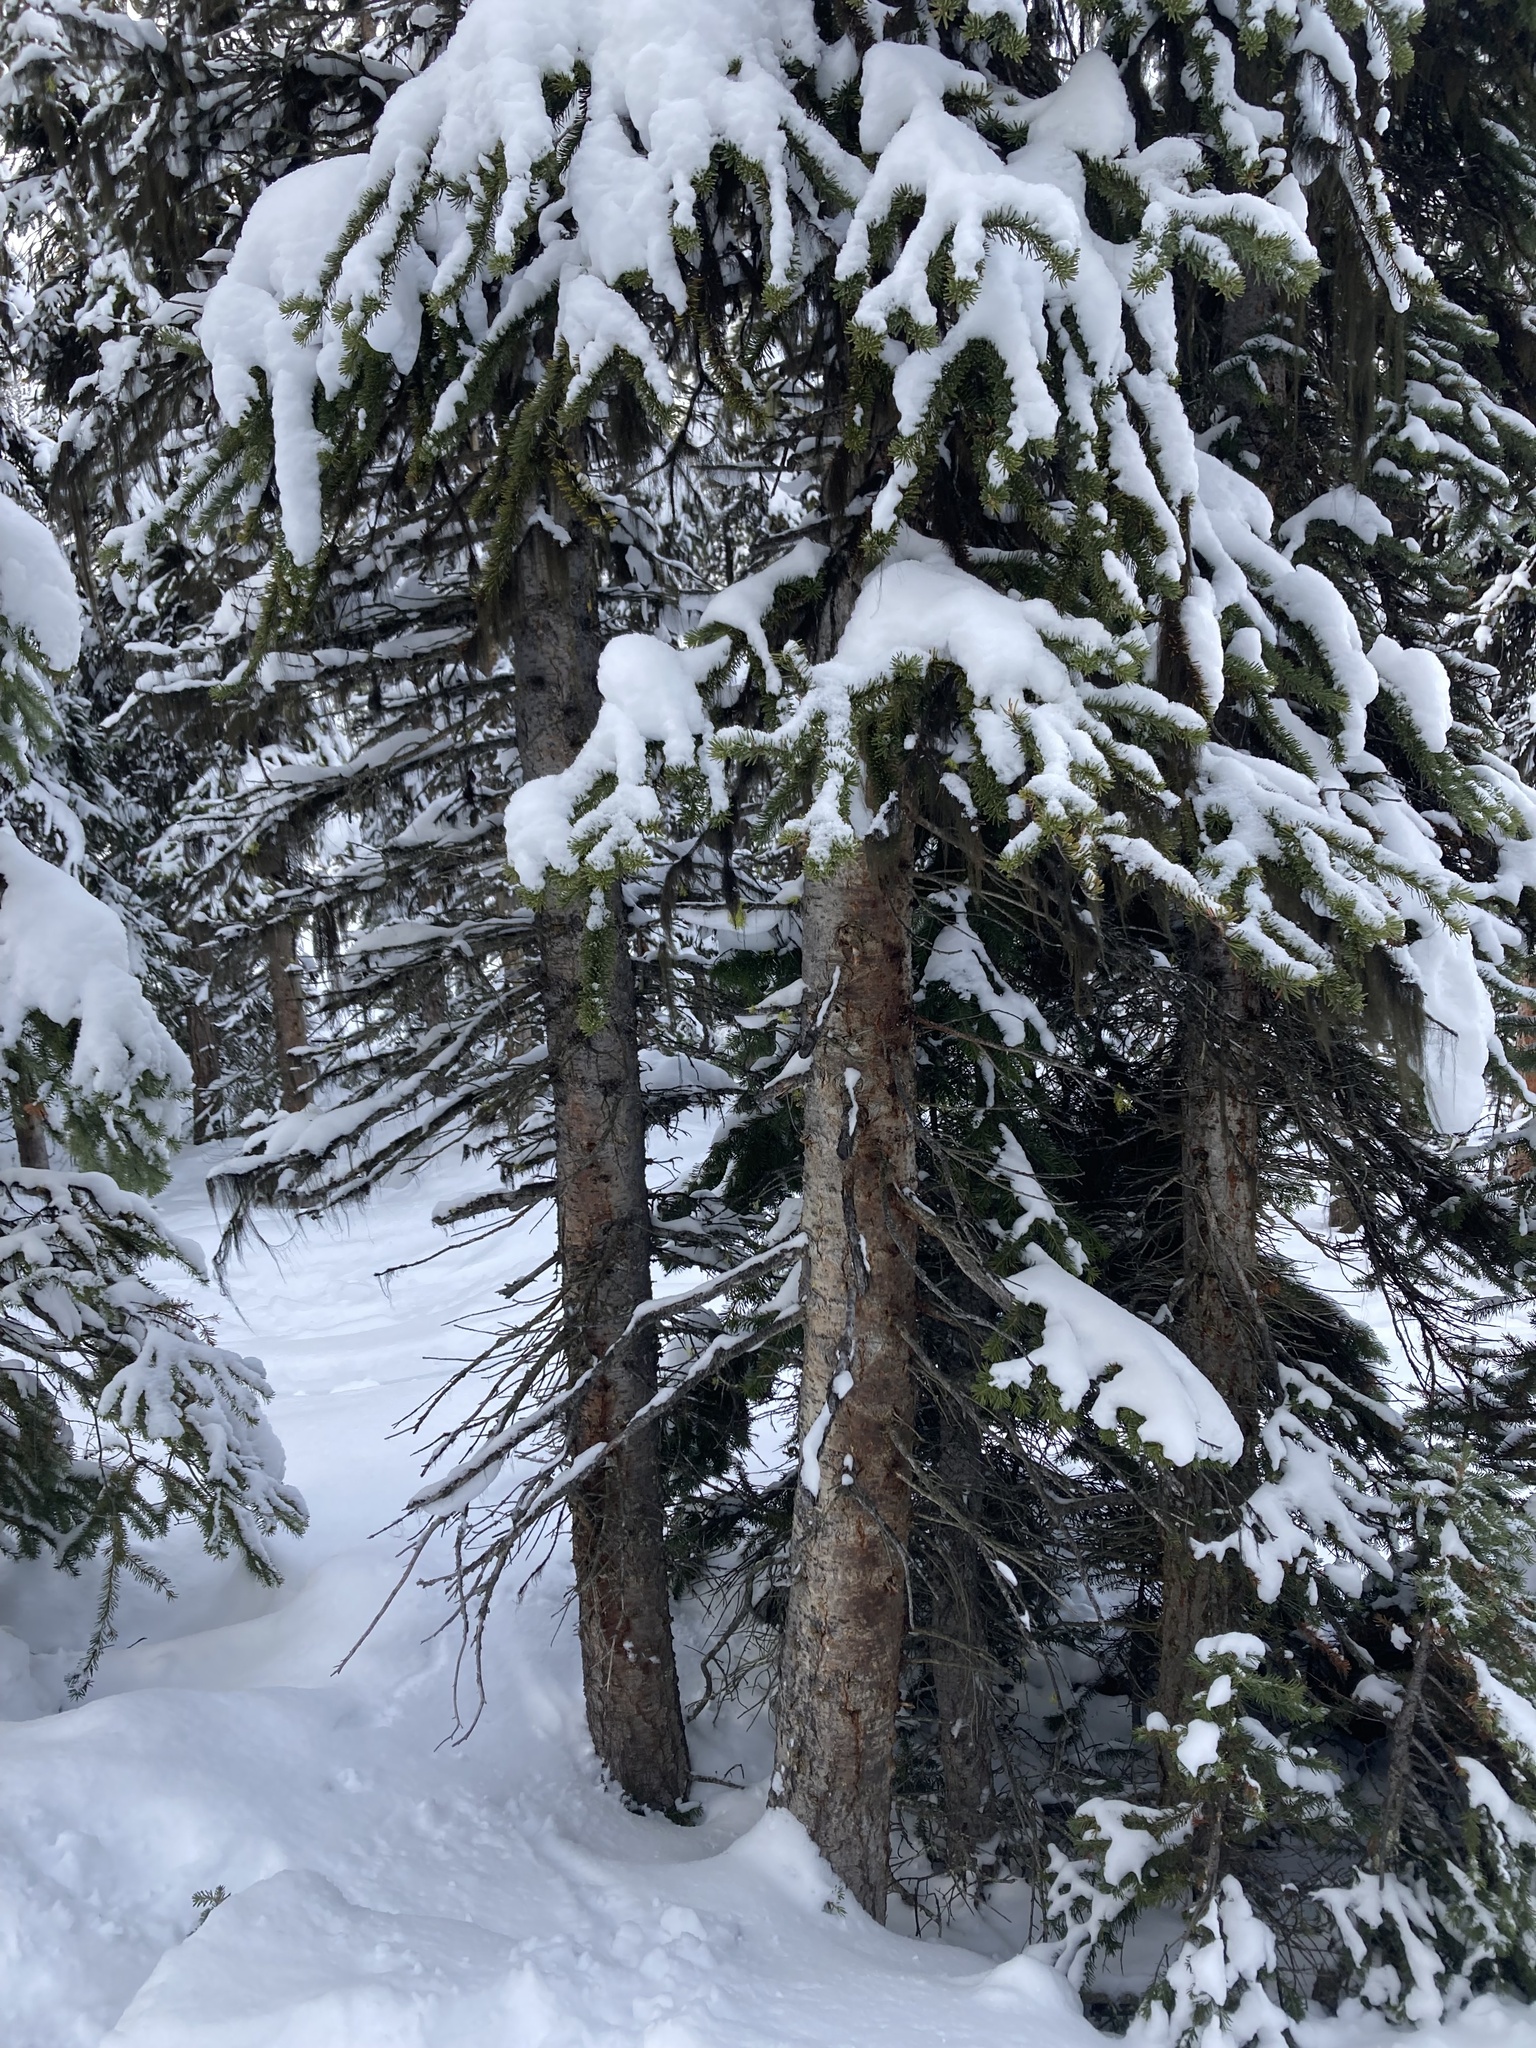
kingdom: Plantae
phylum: Tracheophyta
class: Pinopsida
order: Pinales
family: Pinaceae
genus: Abies
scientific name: Abies lasiocarpa
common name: Subalpine fir
